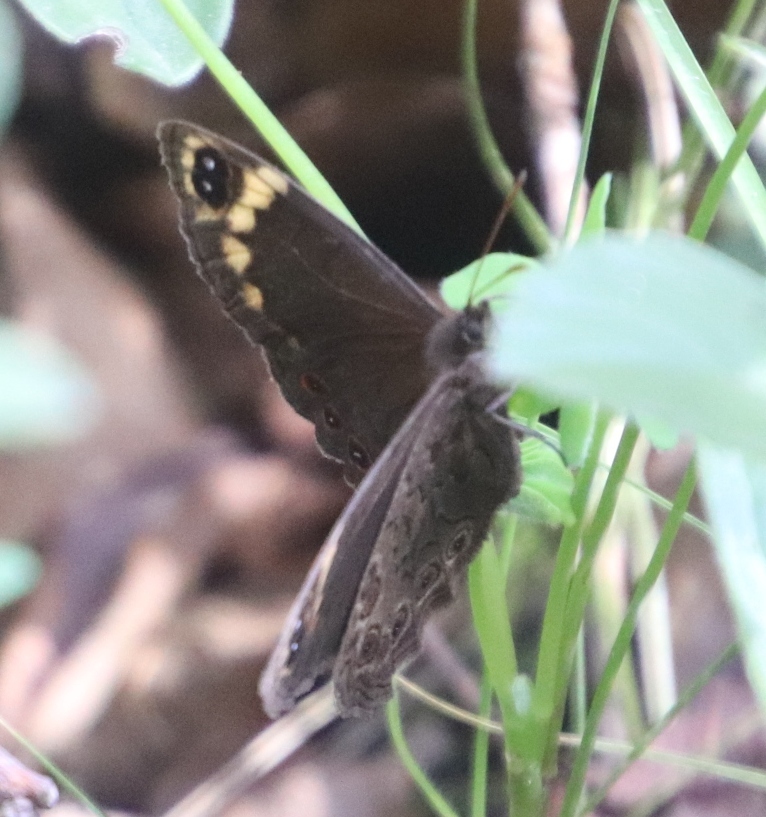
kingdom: Animalia
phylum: Arthropoda
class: Insecta
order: Lepidoptera
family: Nymphalidae
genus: Dira
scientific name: Dira clytus
